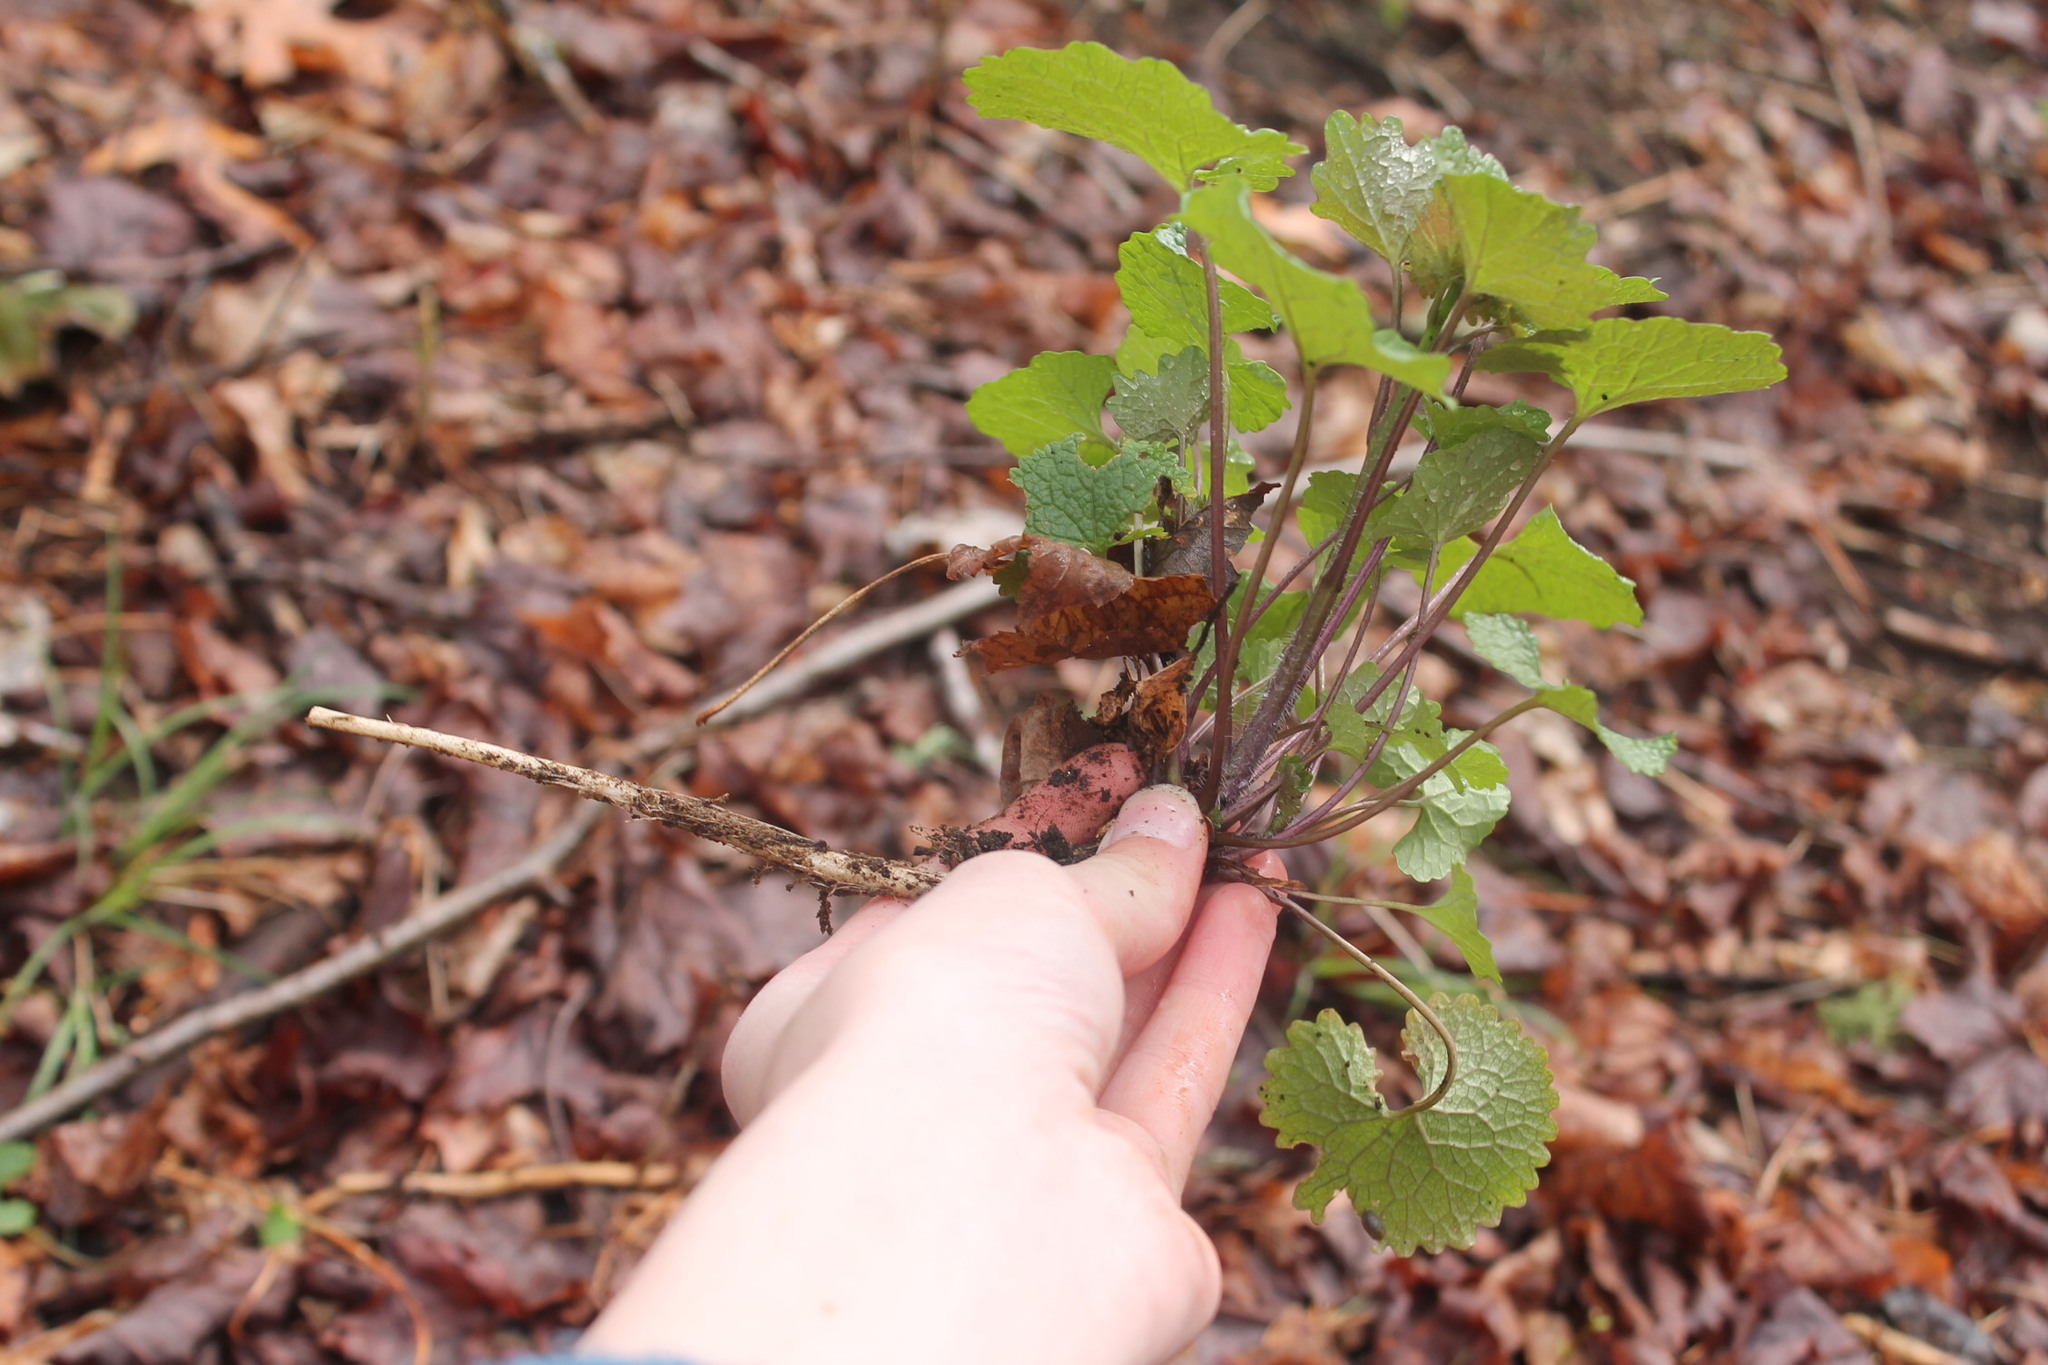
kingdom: Plantae
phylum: Tracheophyta
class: Magnoliopsida
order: Brassicales
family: Brassicaceae
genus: Alliaria
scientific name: Alliaria petiolata
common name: Garlic mustard
